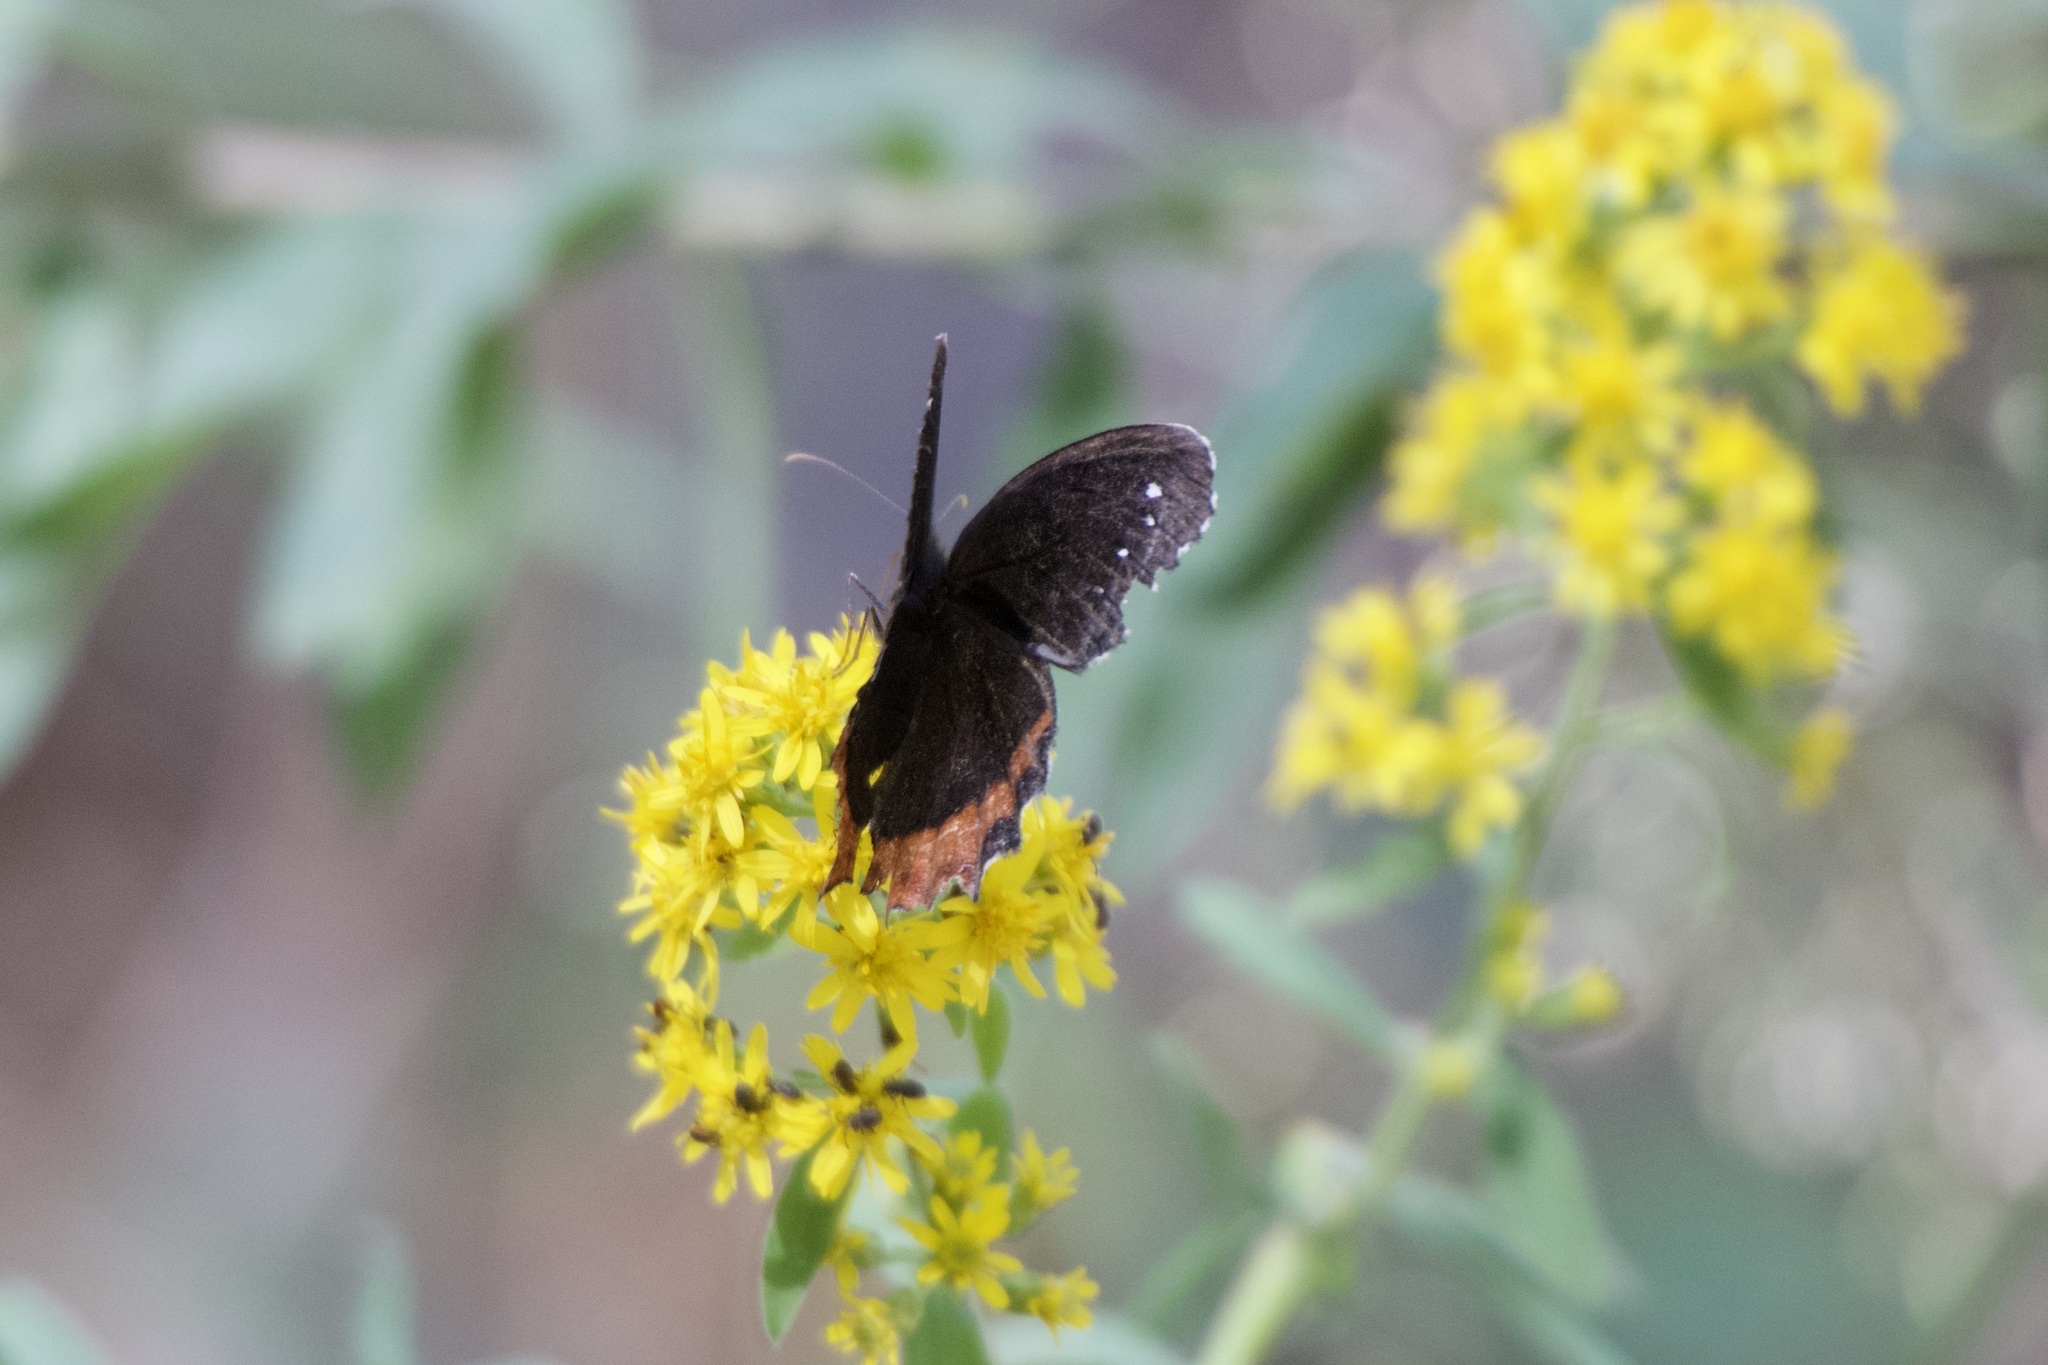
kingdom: Animalia
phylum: Arthropoda
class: Insecta
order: Lepidoptera
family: Nymphalidae
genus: Gyrocheilus
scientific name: Gyrocheilus patrobas
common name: Red-bordered satyr
